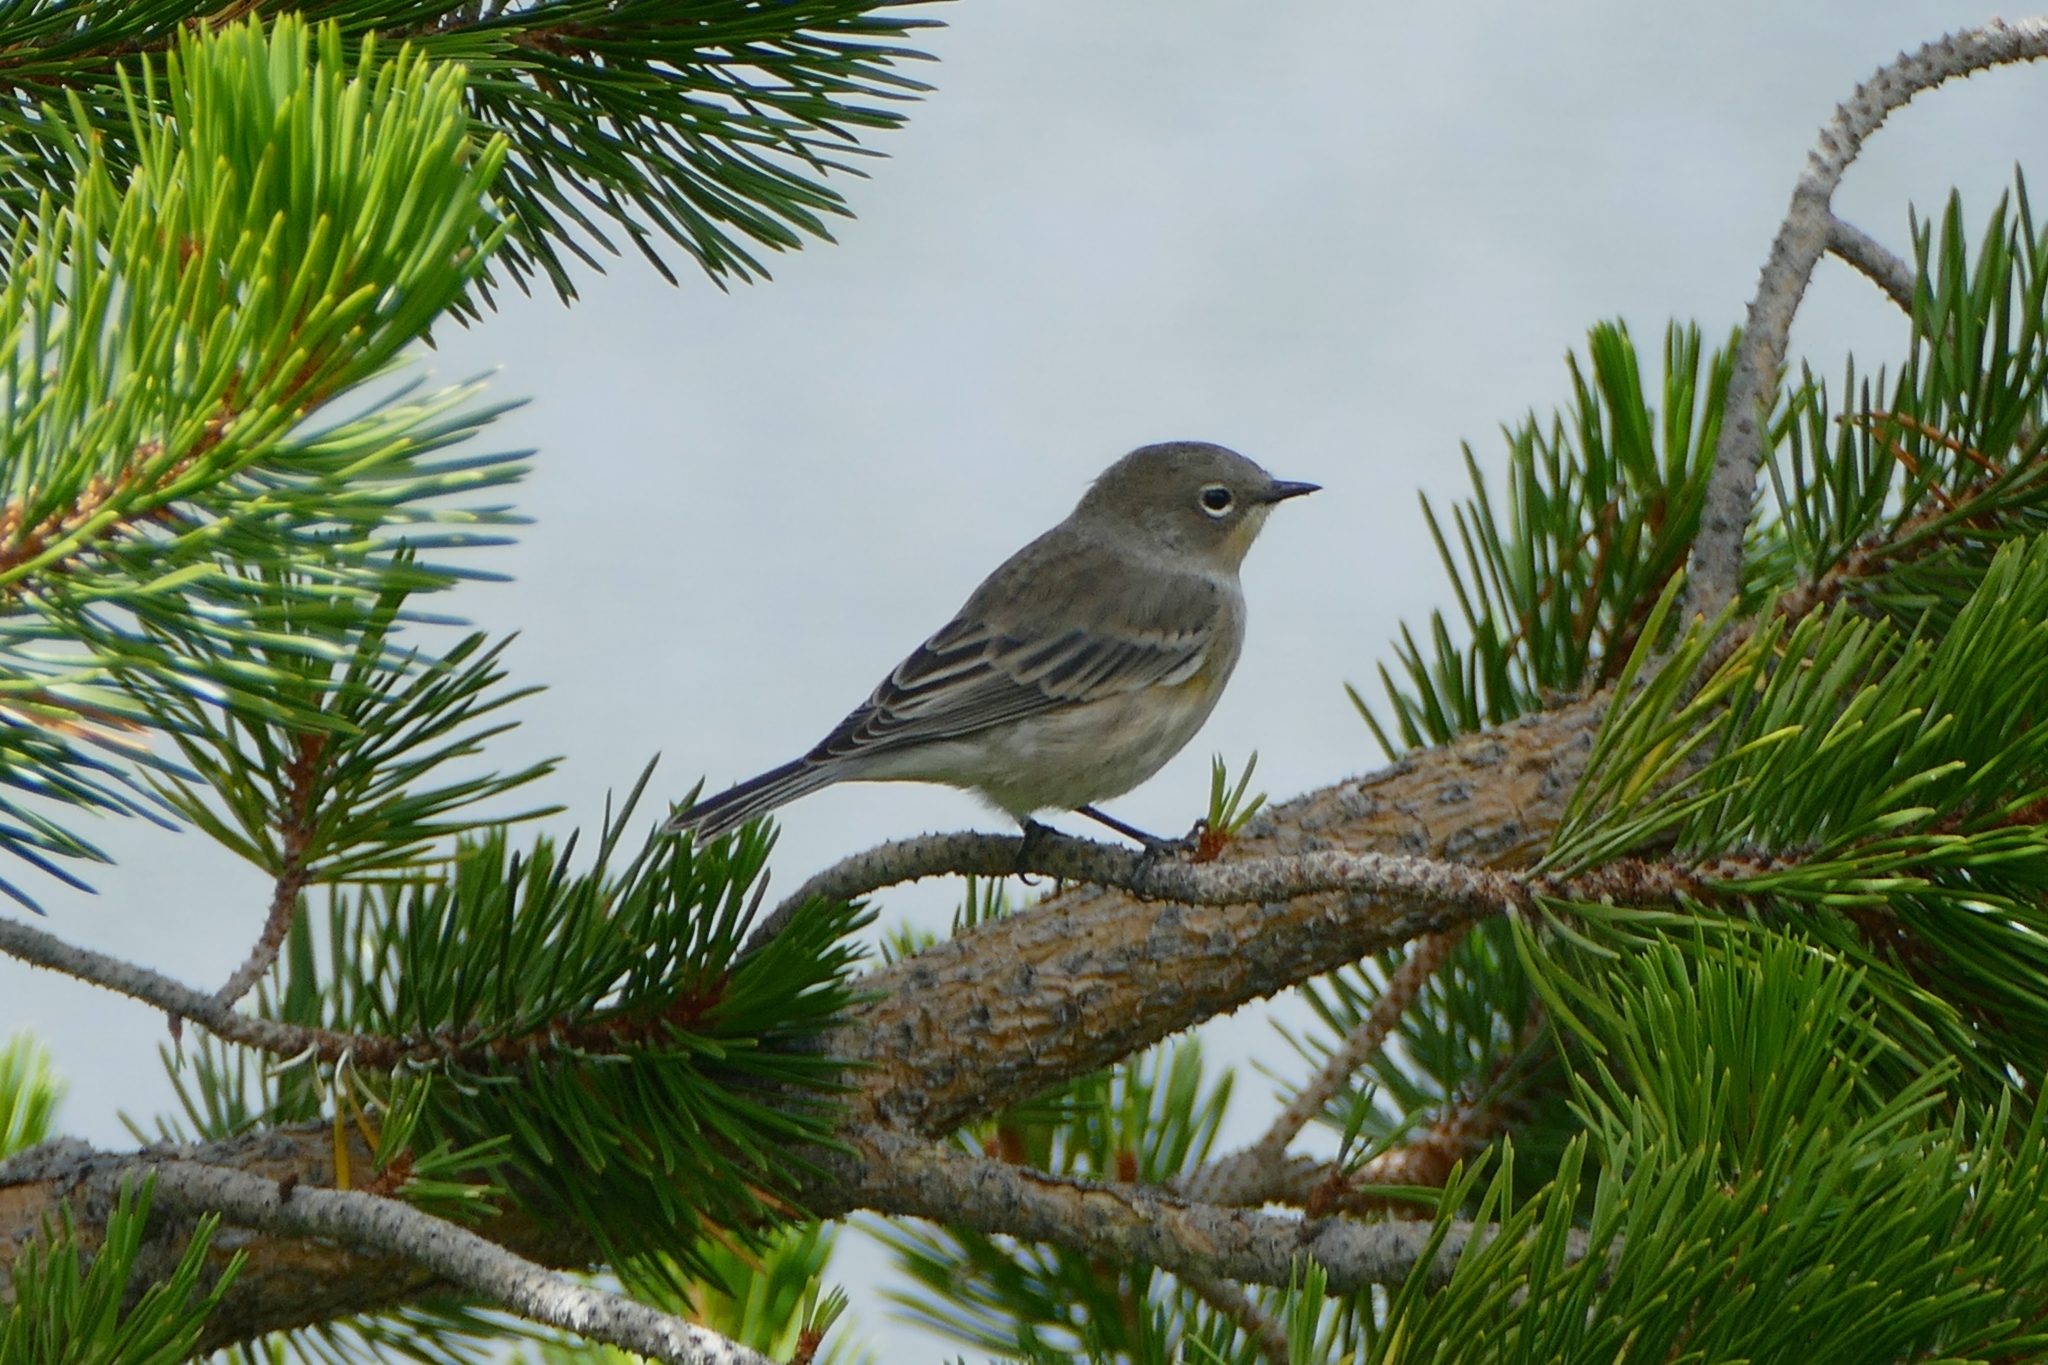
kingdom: Animalia
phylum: Chordata
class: Aves
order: Passeriformes
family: Parulidae
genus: Setophaga
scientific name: Setophaga coronata
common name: Myrtle warbler
